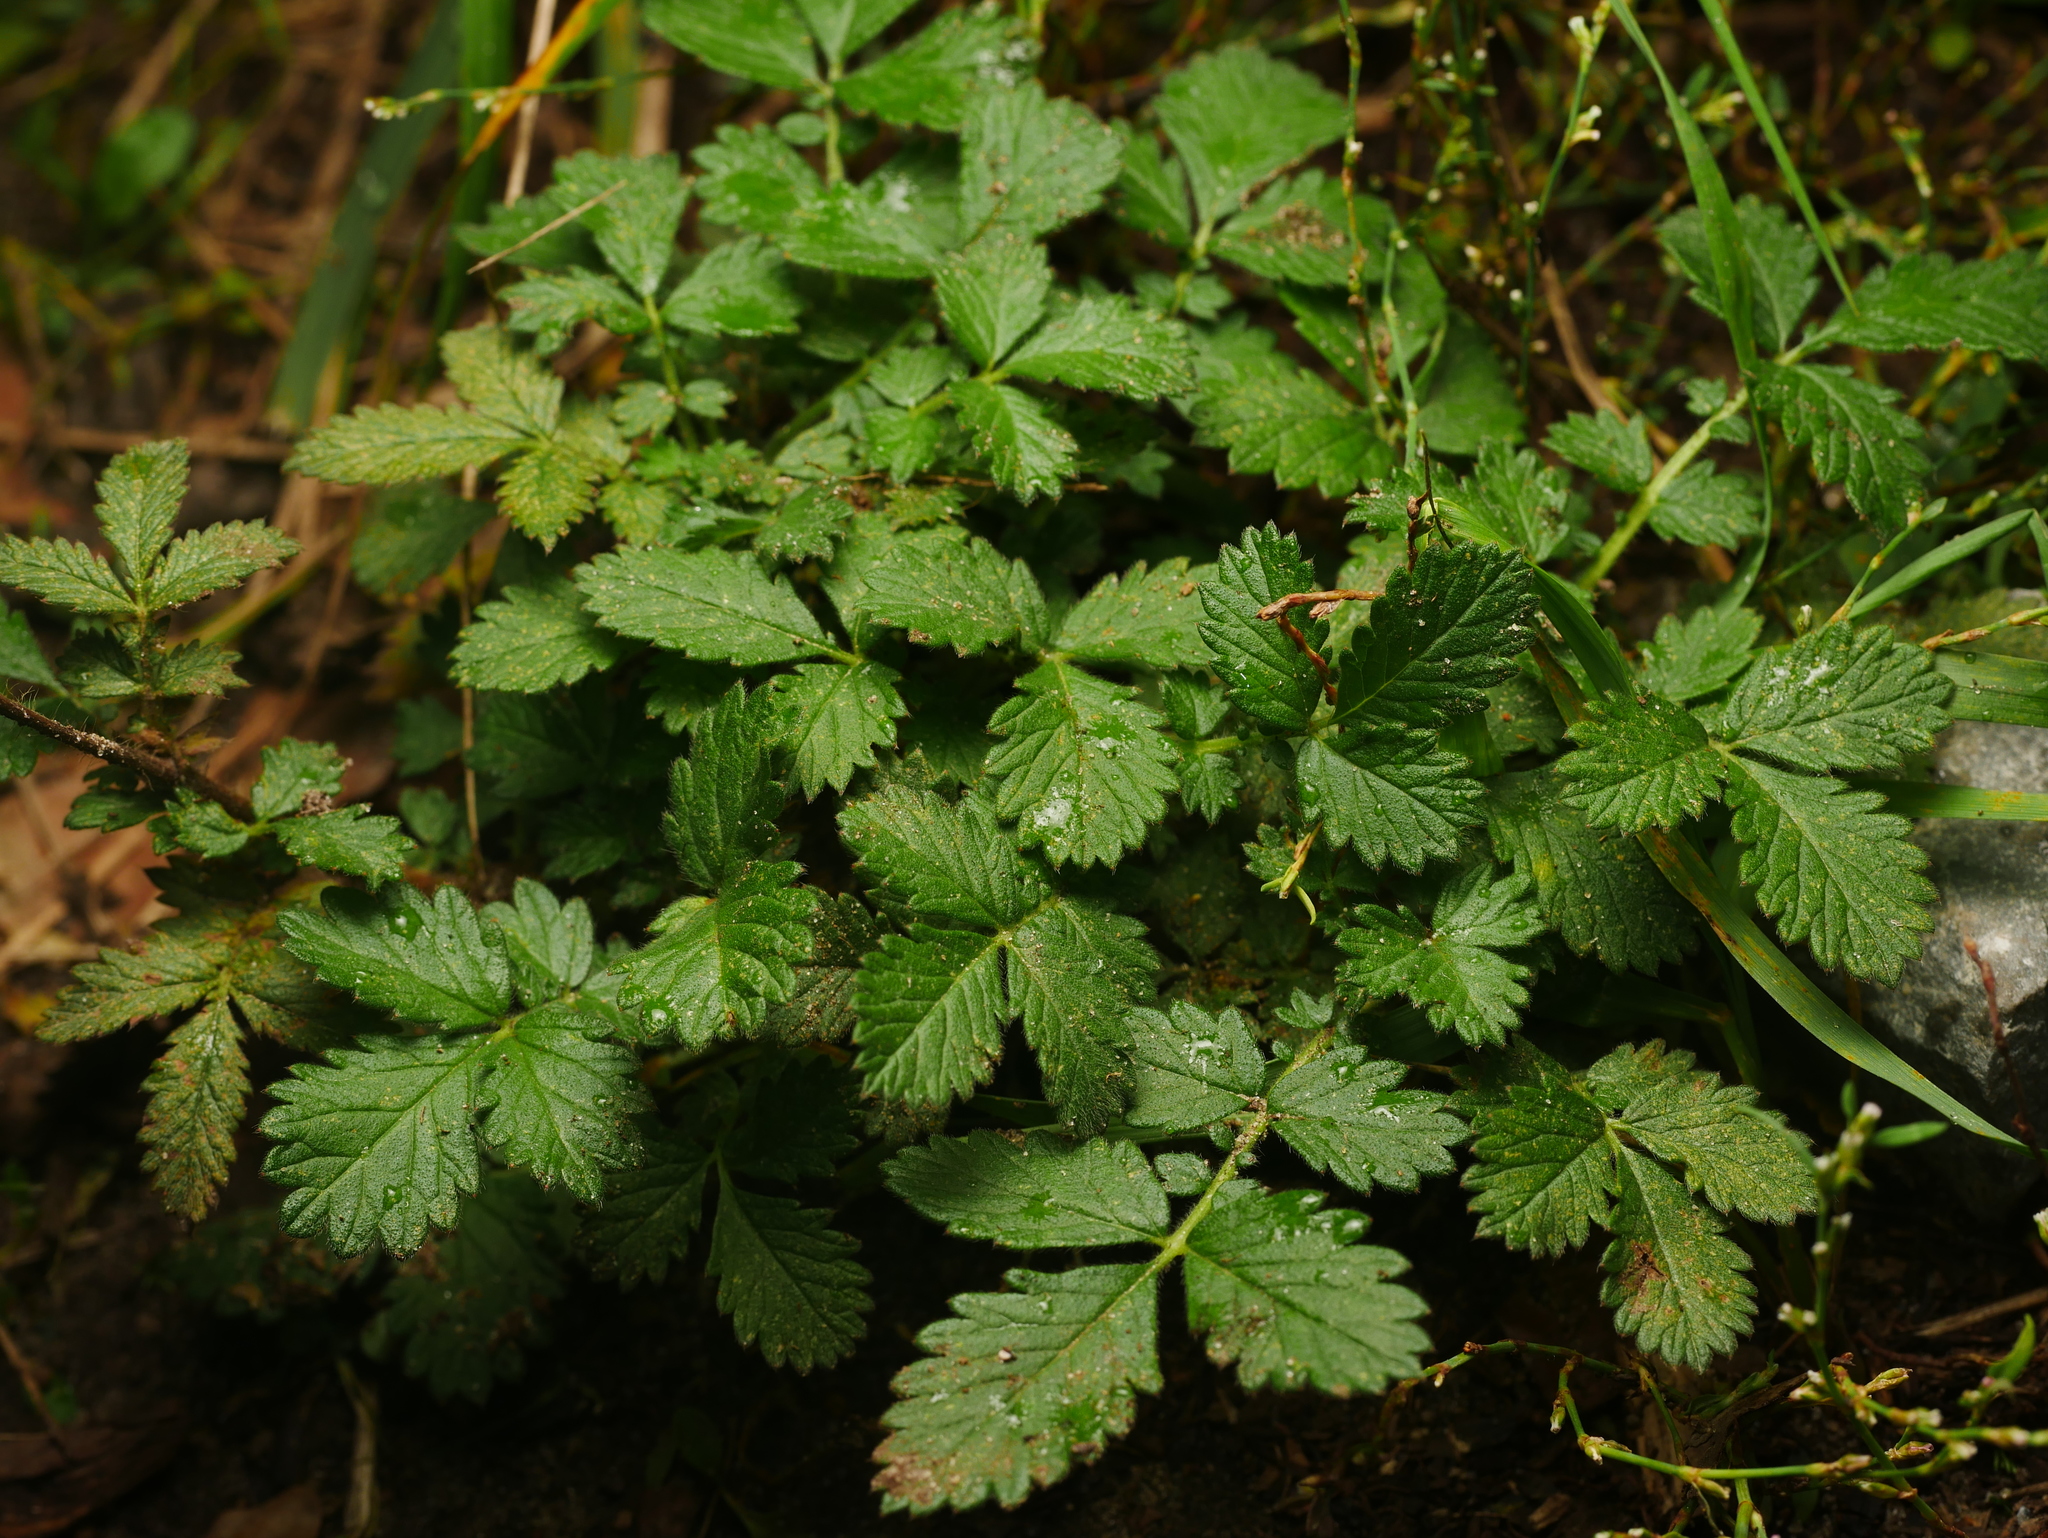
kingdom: Plantae
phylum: Tracheophyta
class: Magnoliopsida
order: Rosales
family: Rosaceae
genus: Agrimonia
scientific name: Agrimonia eupatoria
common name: Agrimony
